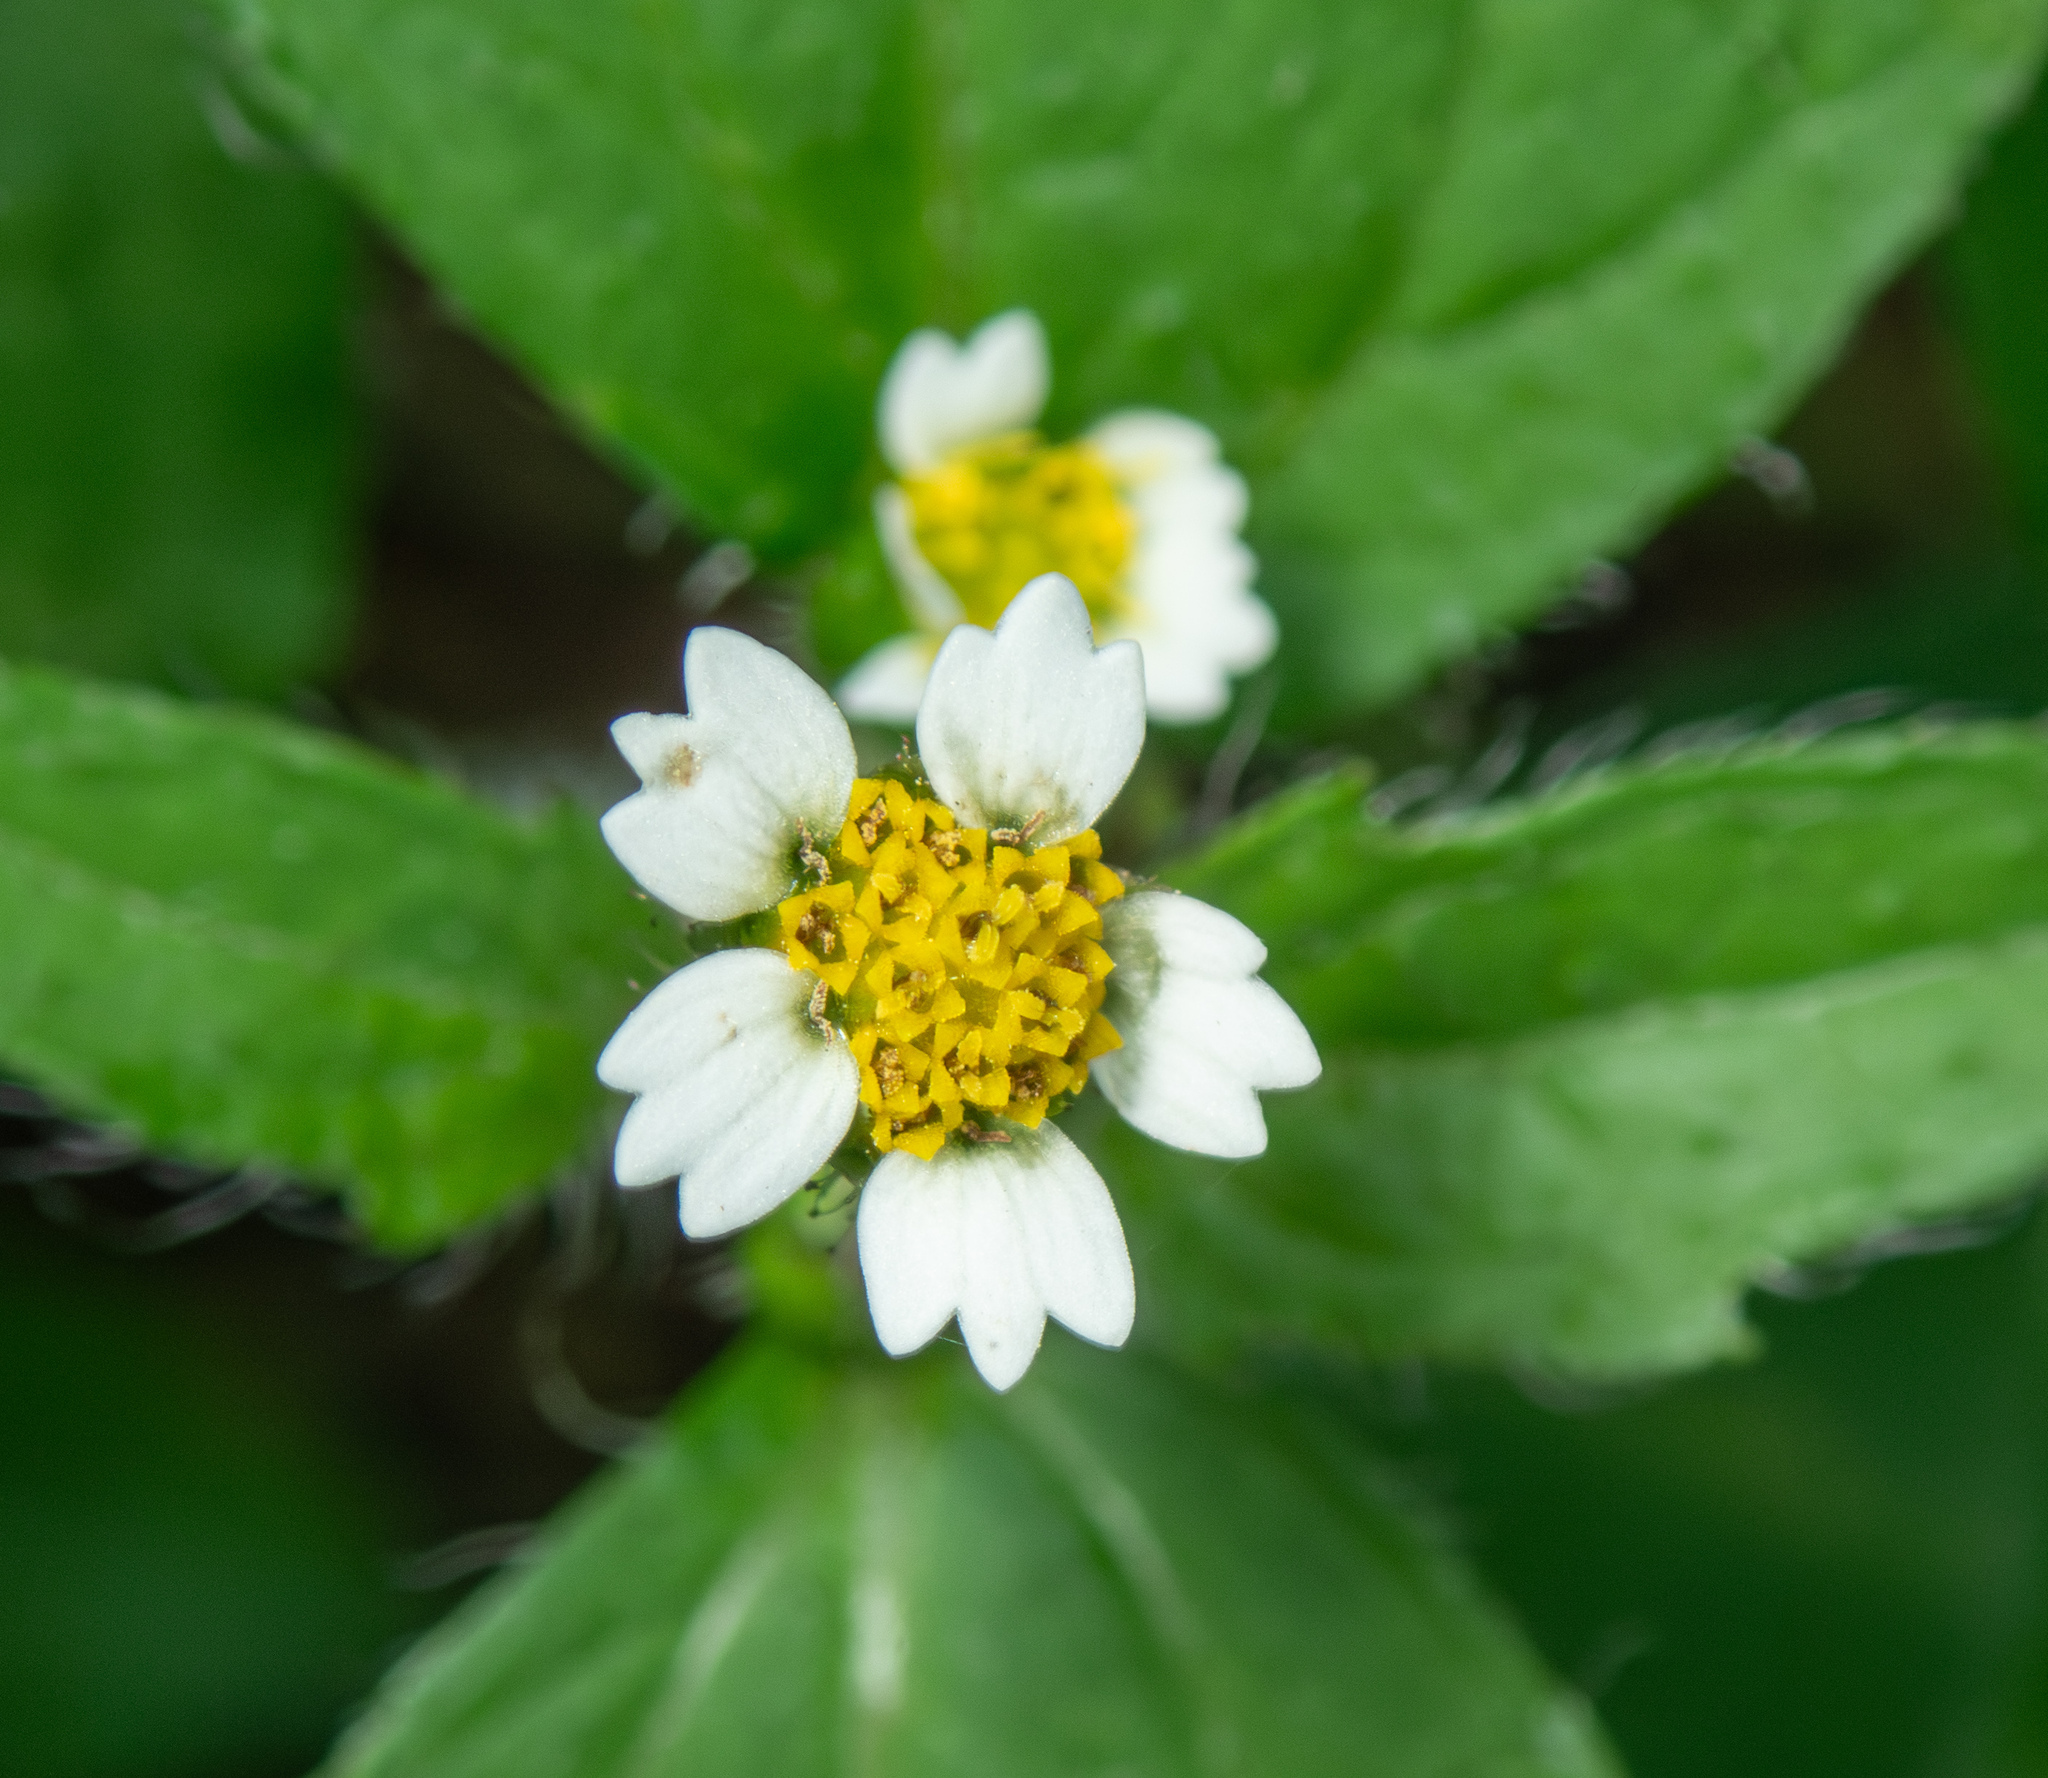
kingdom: Plantae
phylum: Tracheophyta
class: Magnoliopsida
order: Asterales
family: Asteraceae
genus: Galinsoga
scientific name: Galinsoga quadriradiata
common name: Shaggy soldier
